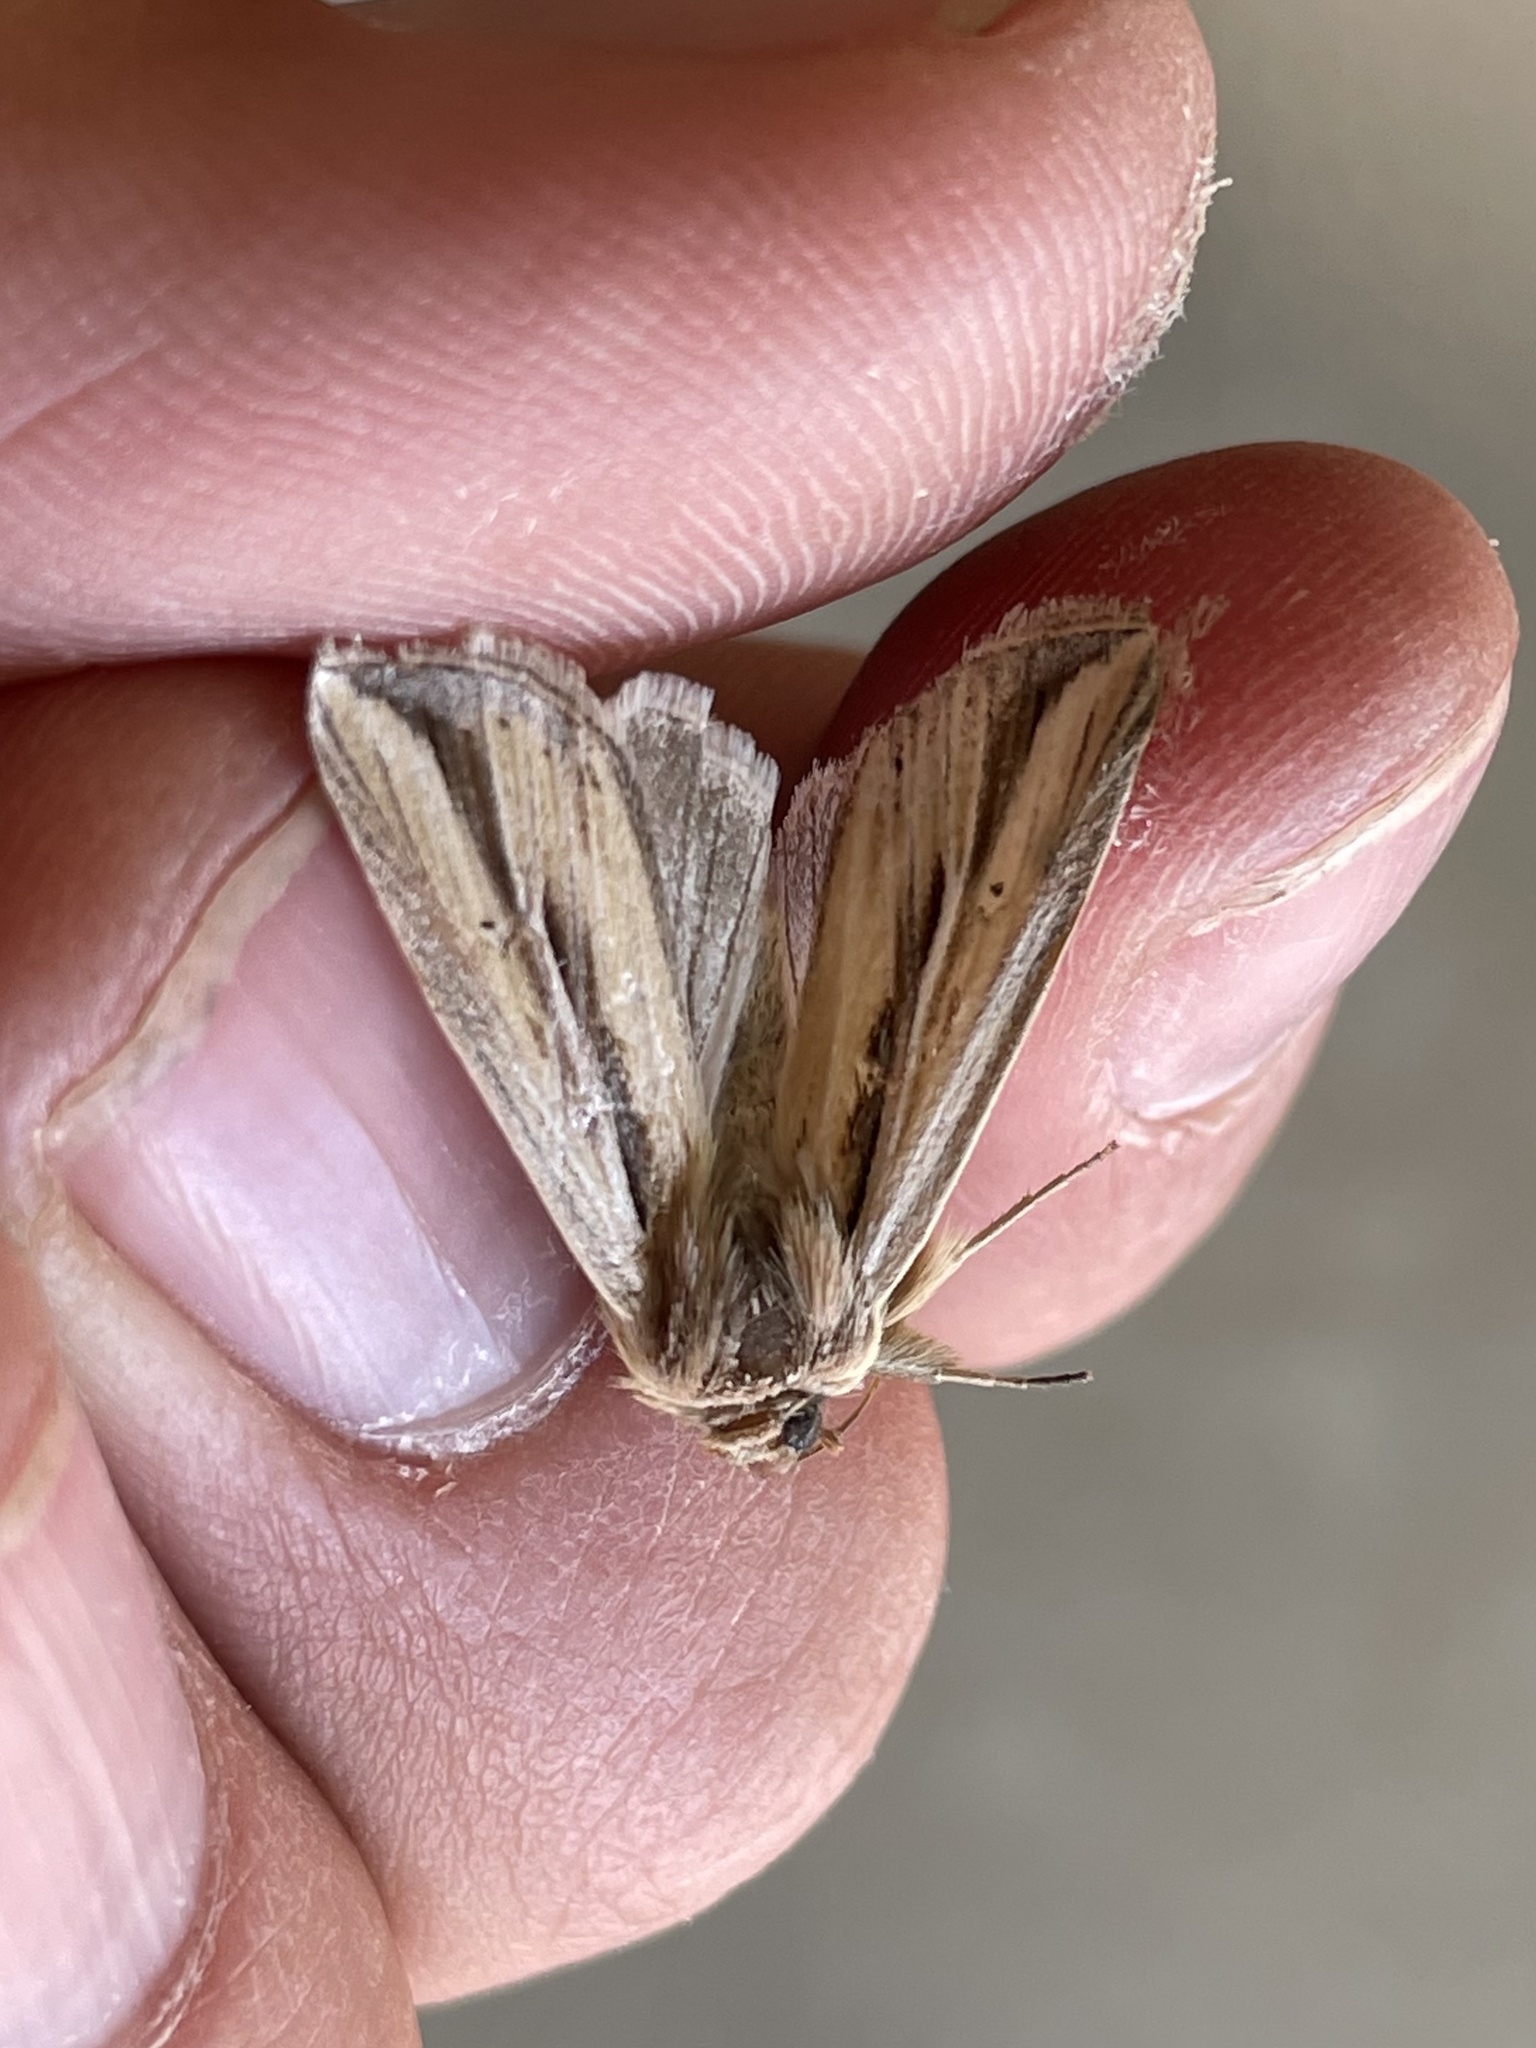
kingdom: Animalia
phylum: Arthropoda
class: Insecta
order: Lepidoptera
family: Noctuidae
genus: Dargida
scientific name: Dargida diffusa
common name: Wheat head armyworm
